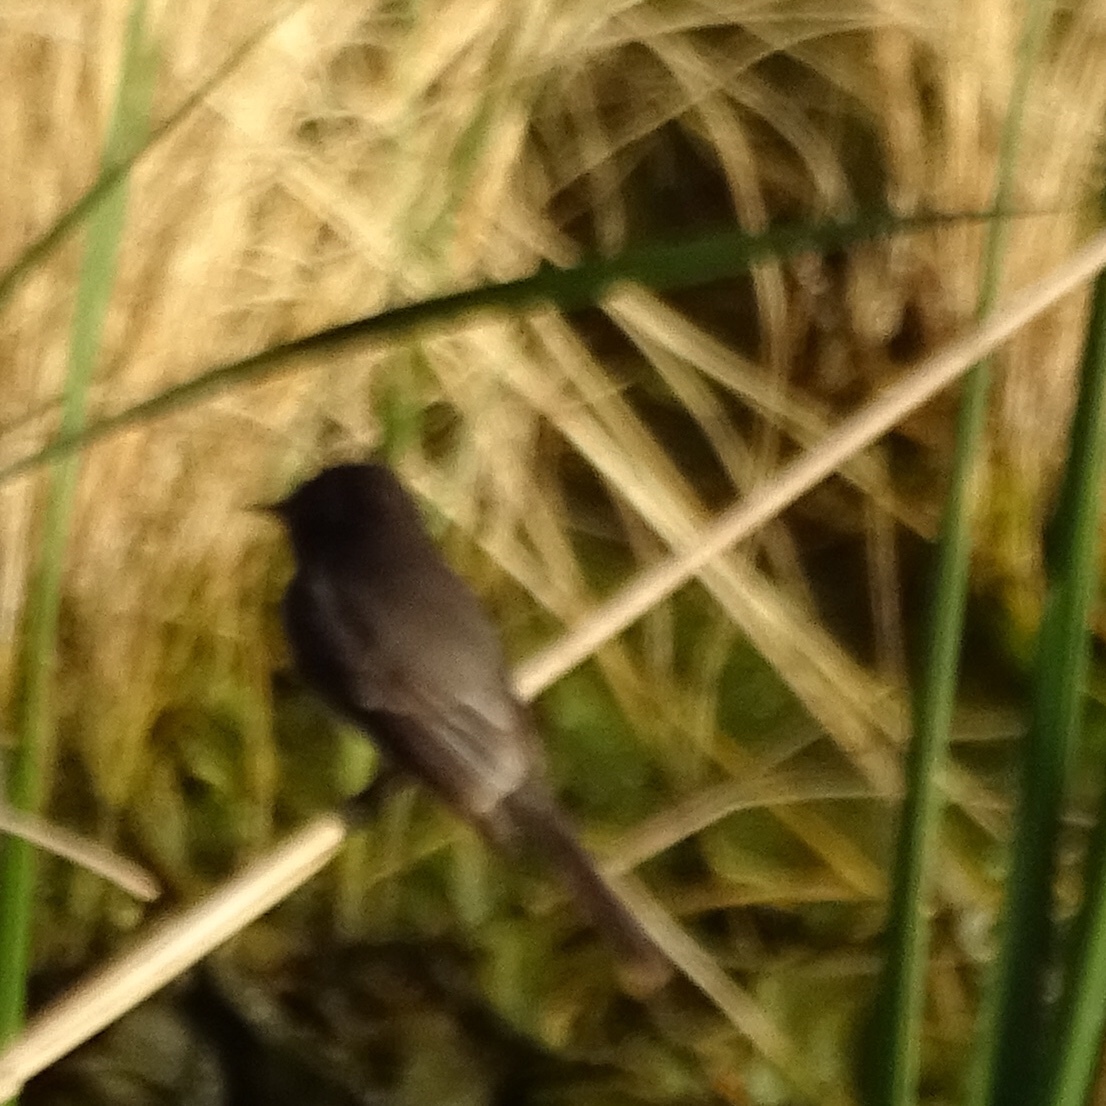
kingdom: Animalia
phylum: Chordata
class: Aves
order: Passeriformes
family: Tyrannidae
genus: Sayornis
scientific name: Sayornis nigricans
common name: Black phoebe
